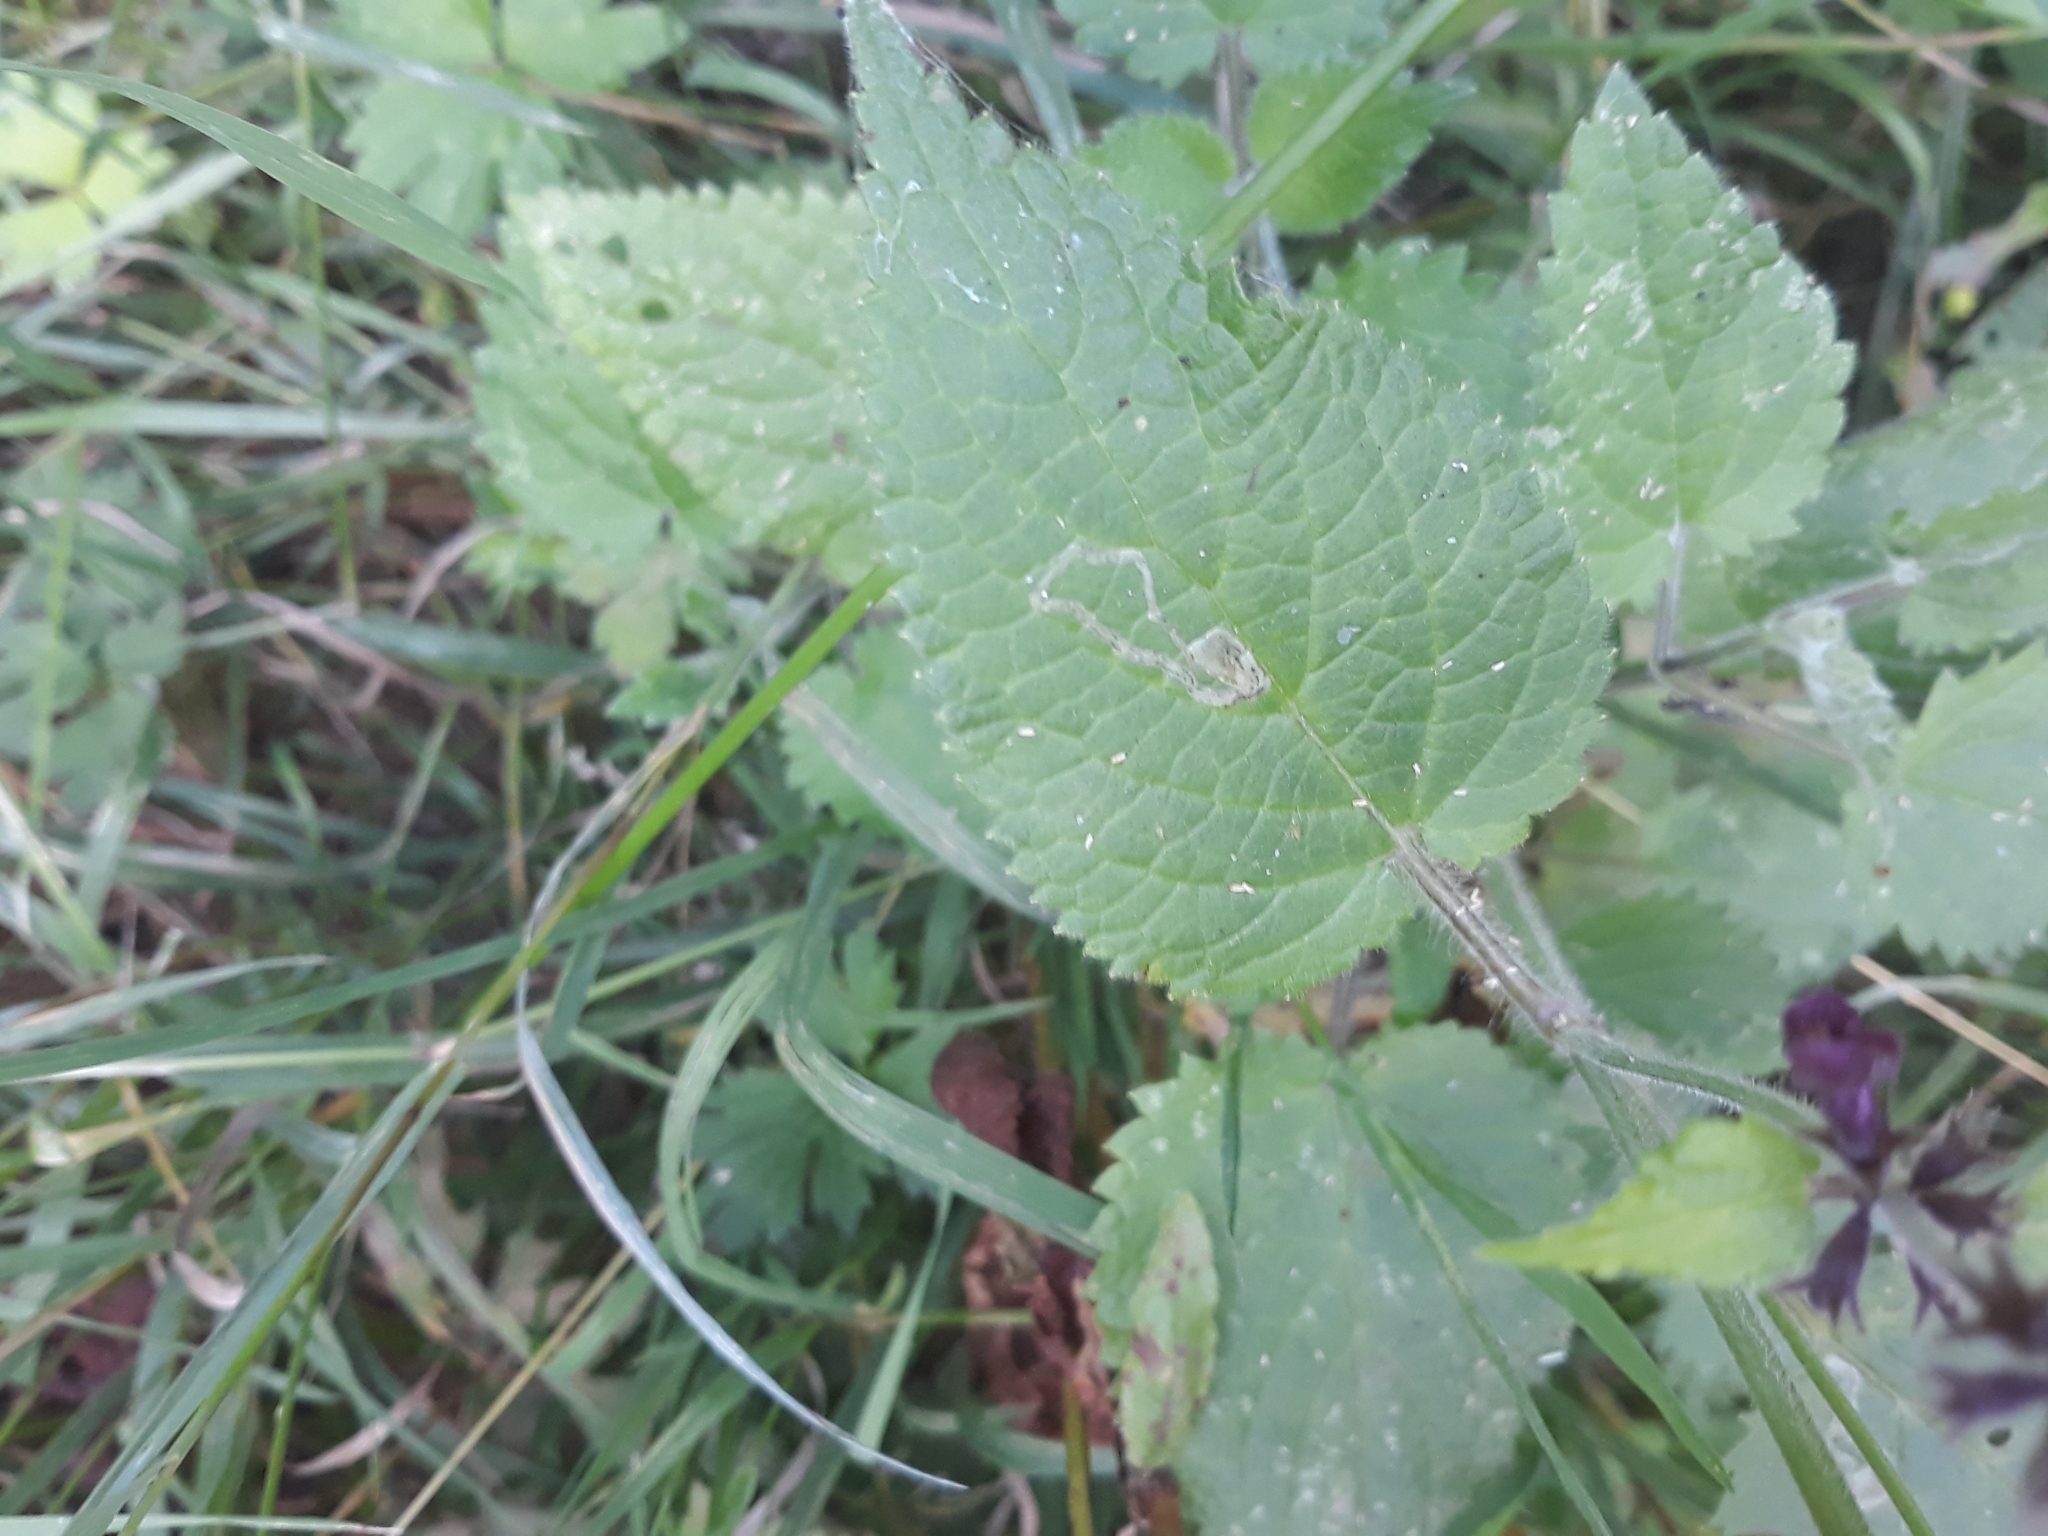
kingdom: Plantae
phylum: Tracheophyta
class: Magnoliopsida
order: Lamiales
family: Lamiaceae
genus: Stachys
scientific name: Stachys sylvatica
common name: Hedge woundwort
